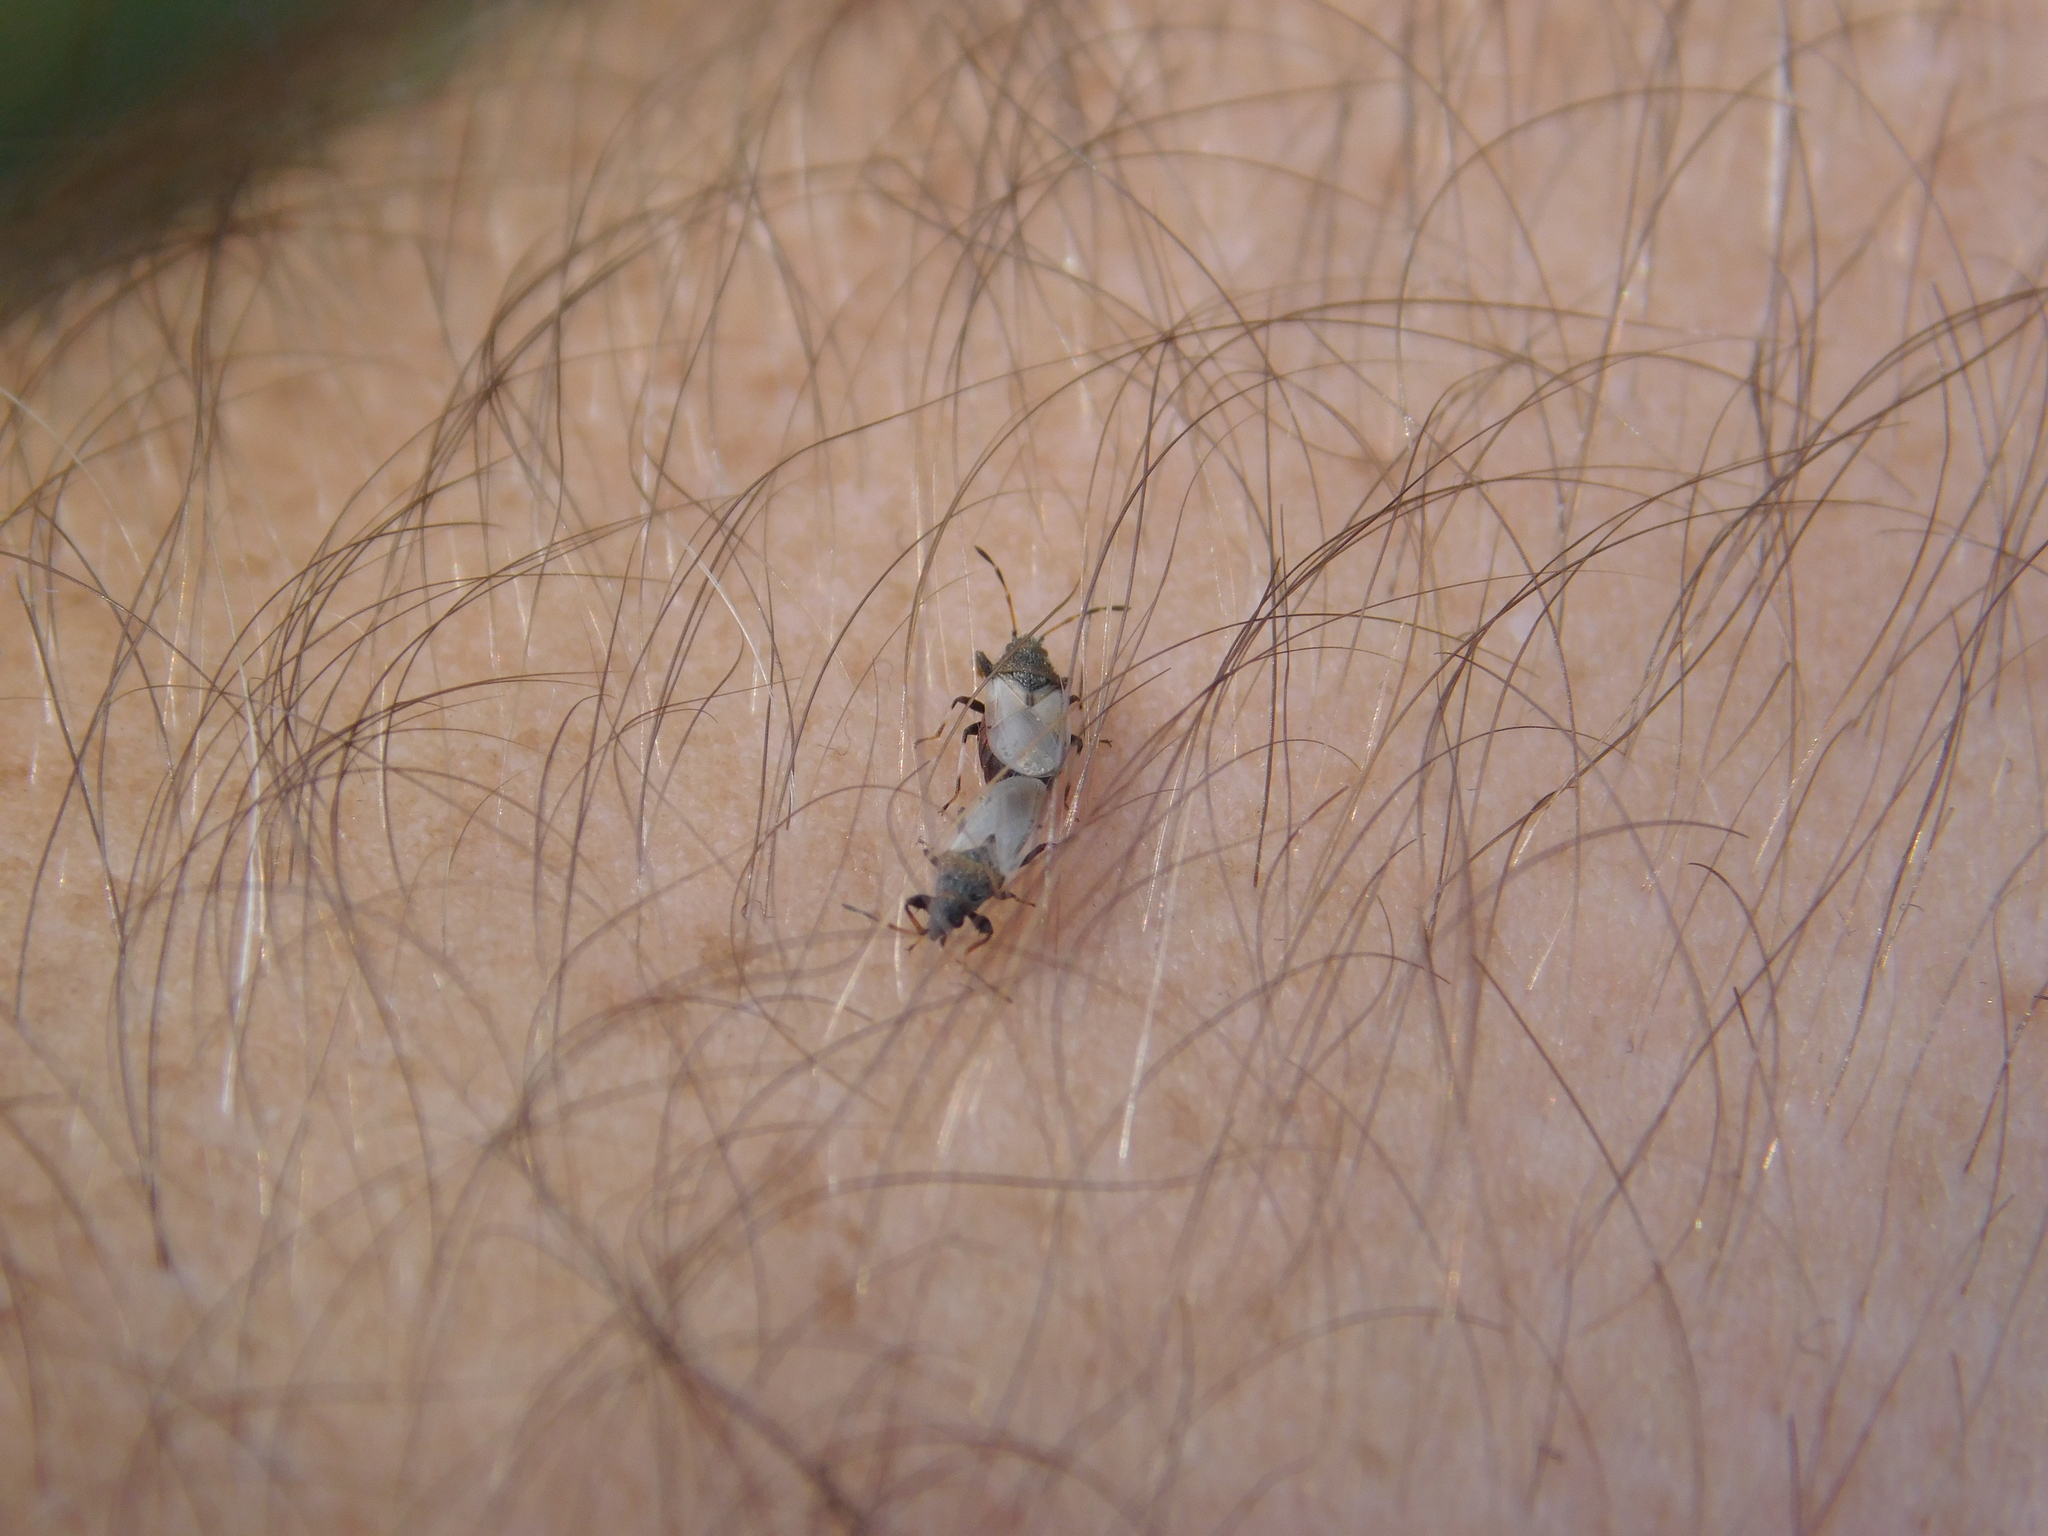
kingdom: Animalia
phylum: Arthropoda
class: Insecta
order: Hemiptera
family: Oxycarenidae
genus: Oxycarenus
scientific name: Oxycarenus hyalinipennis
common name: Cotton seed bug
